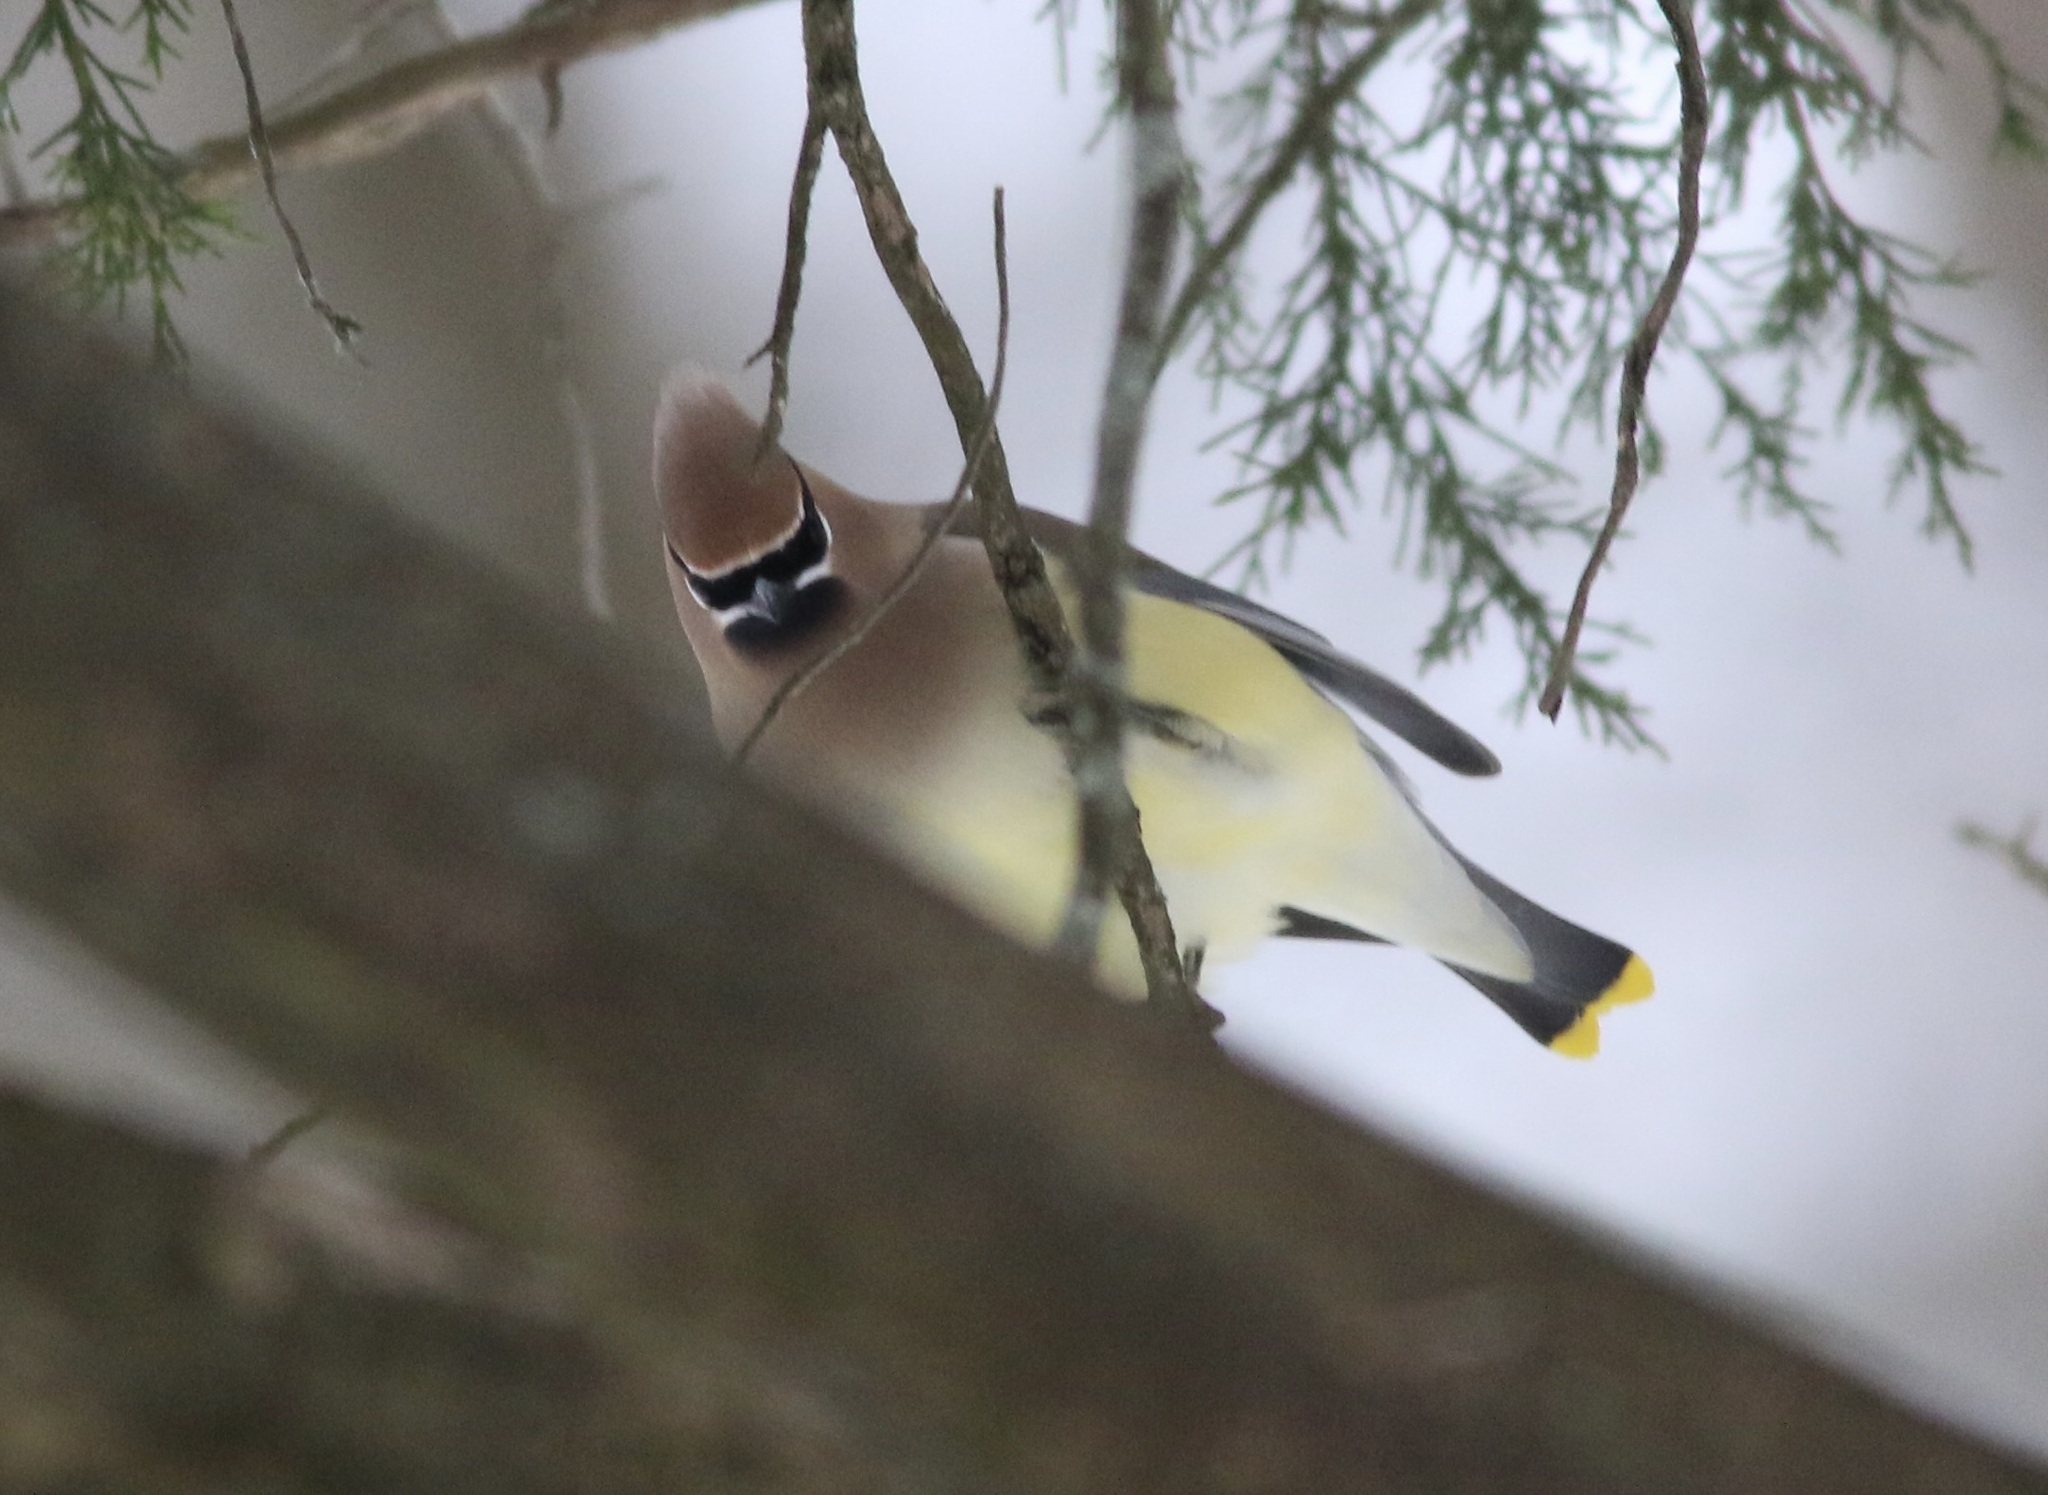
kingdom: Animalia
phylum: Chordata
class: Aves
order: Passeriformes
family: Bombycillidae
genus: Bombycilla
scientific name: Bombycilla cedrorum
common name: Cedar waxwing
